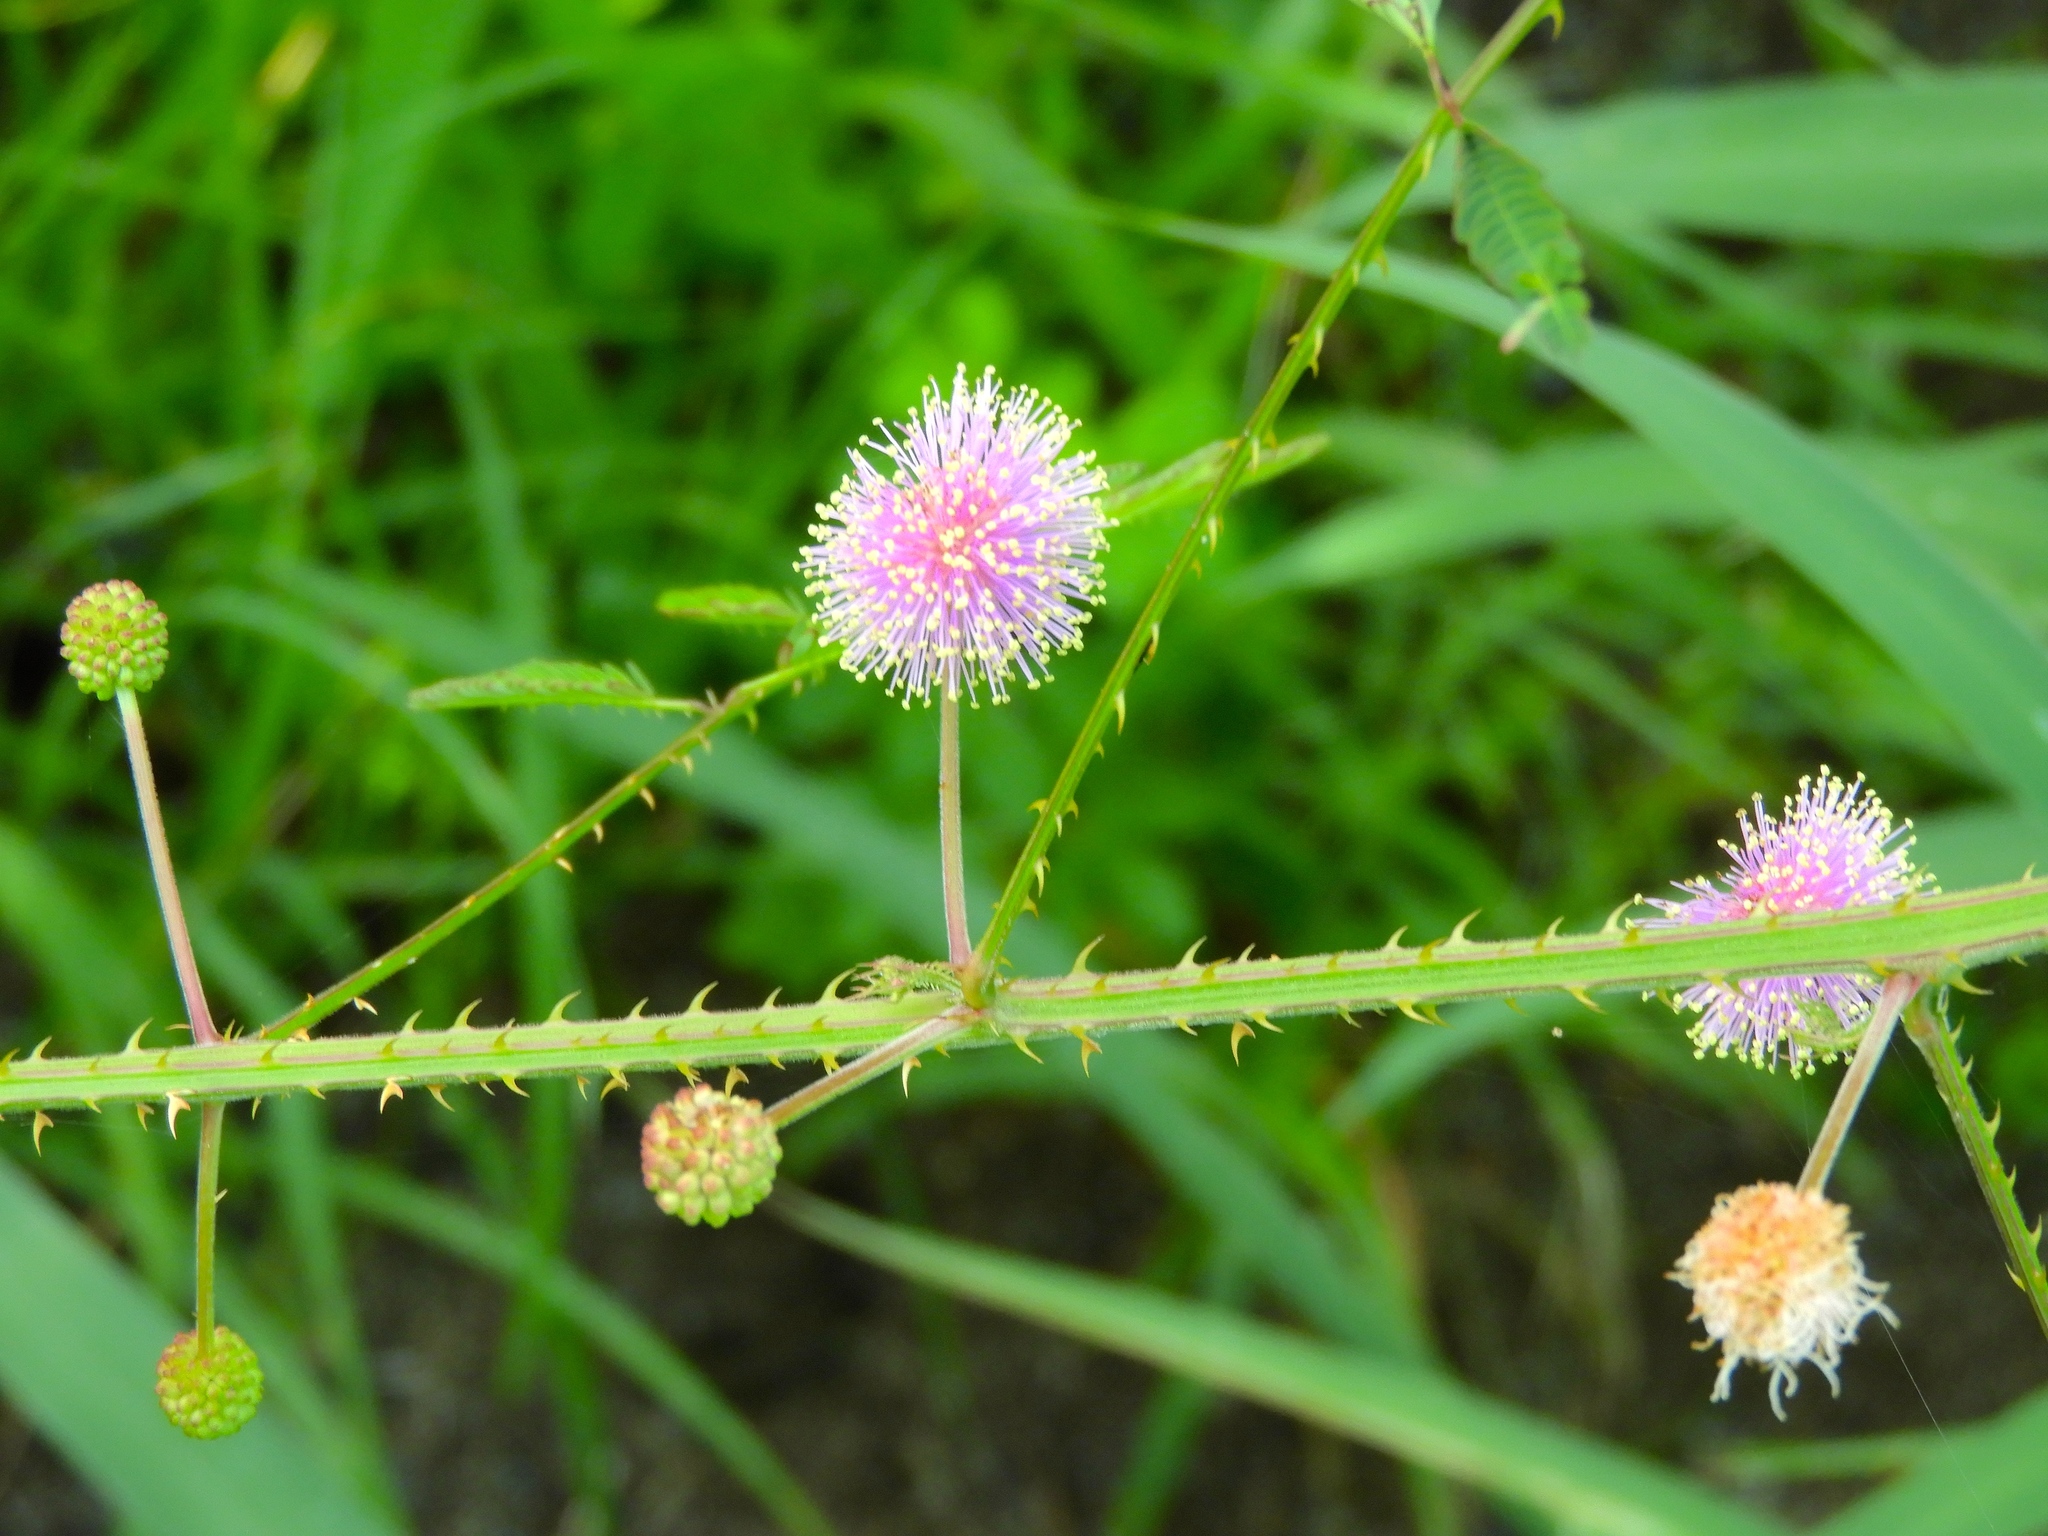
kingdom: Plantae
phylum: Tracheophyta
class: Magnoliopsida
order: Fabales
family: Fabaceae
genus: Mimosa
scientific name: Mimosa quadrivalvis
